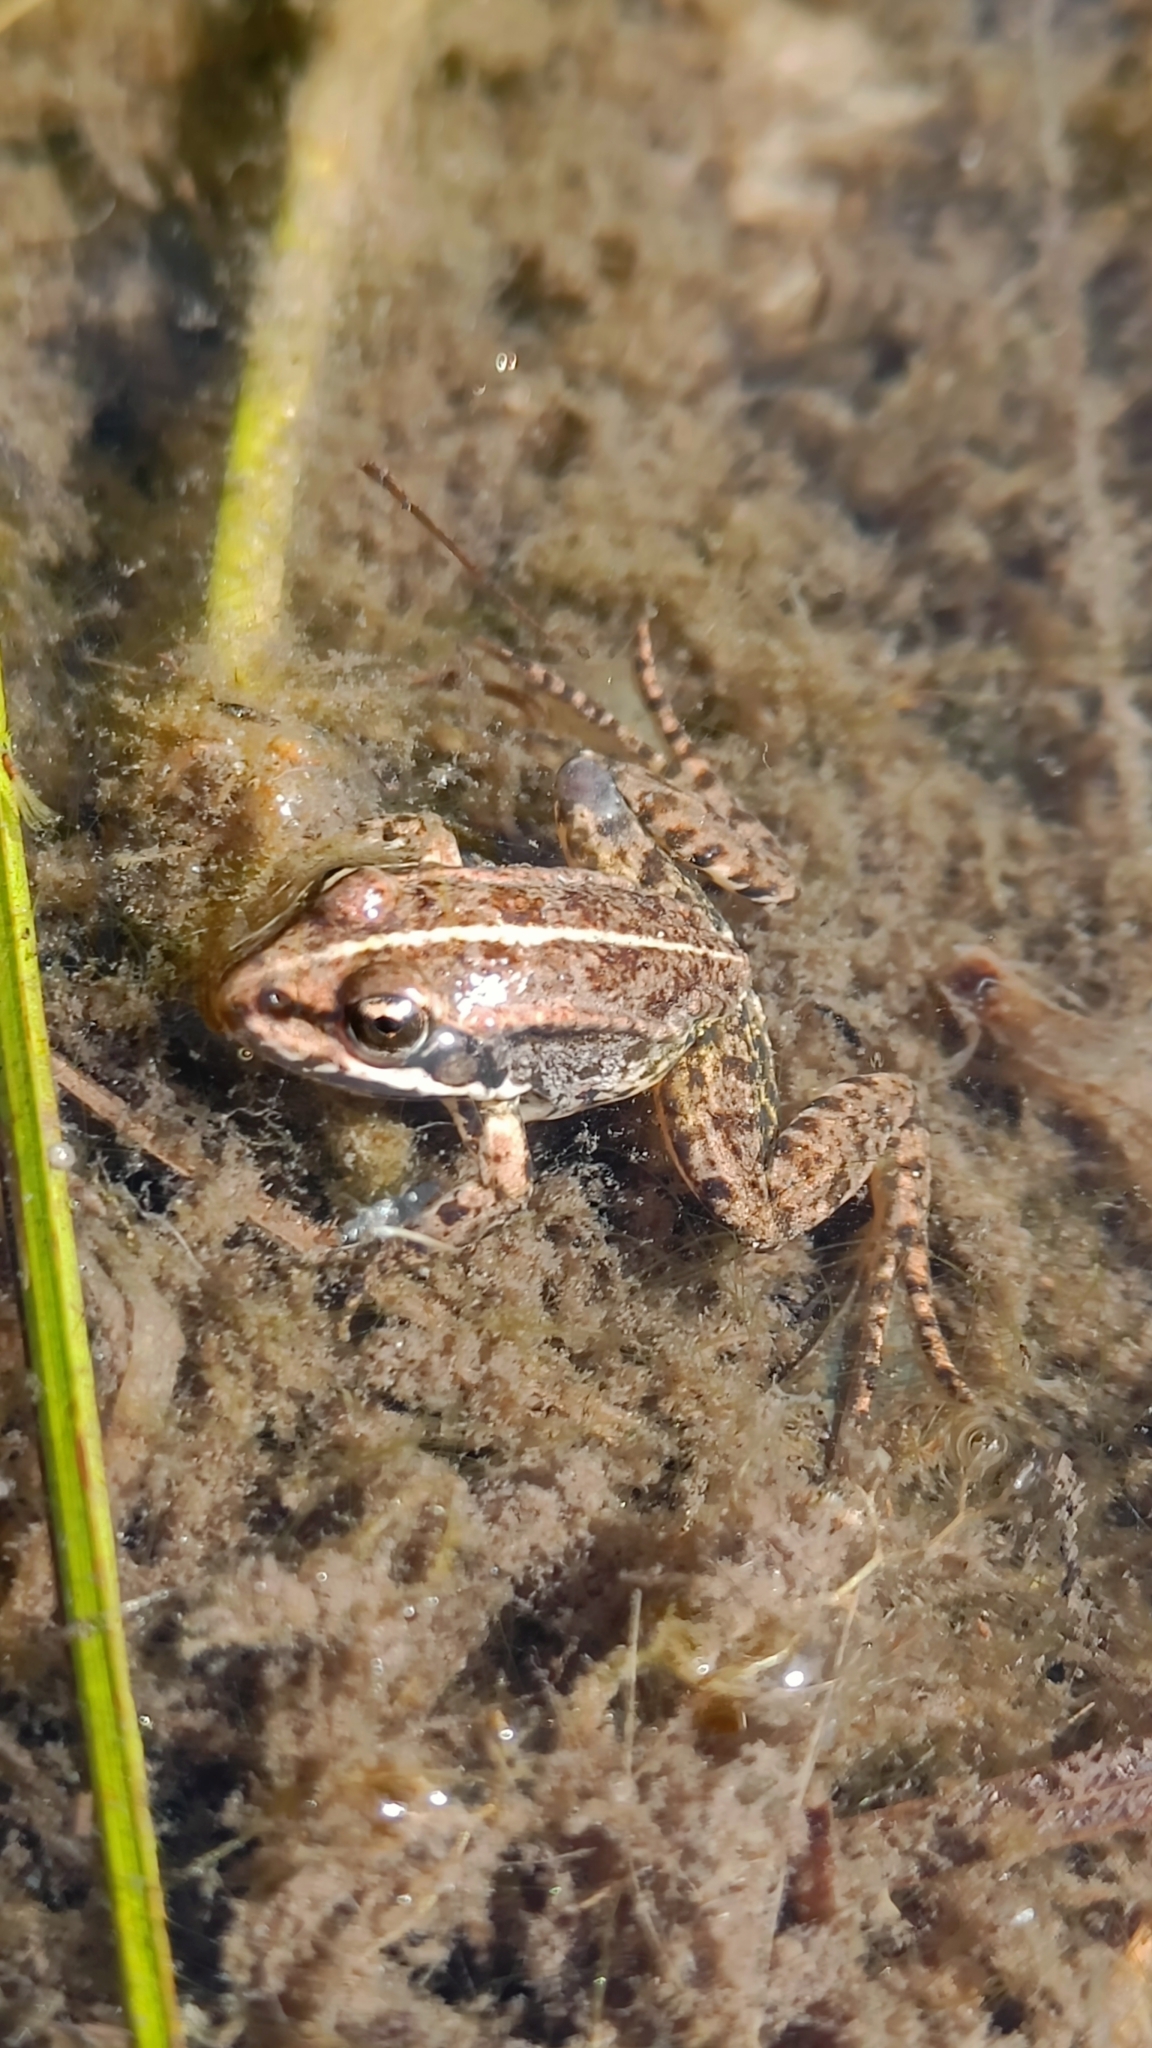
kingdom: Animalia
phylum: Chordata
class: Amphibia
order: Anura
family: Ranidae
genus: Pelophylax
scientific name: Pelophylax
